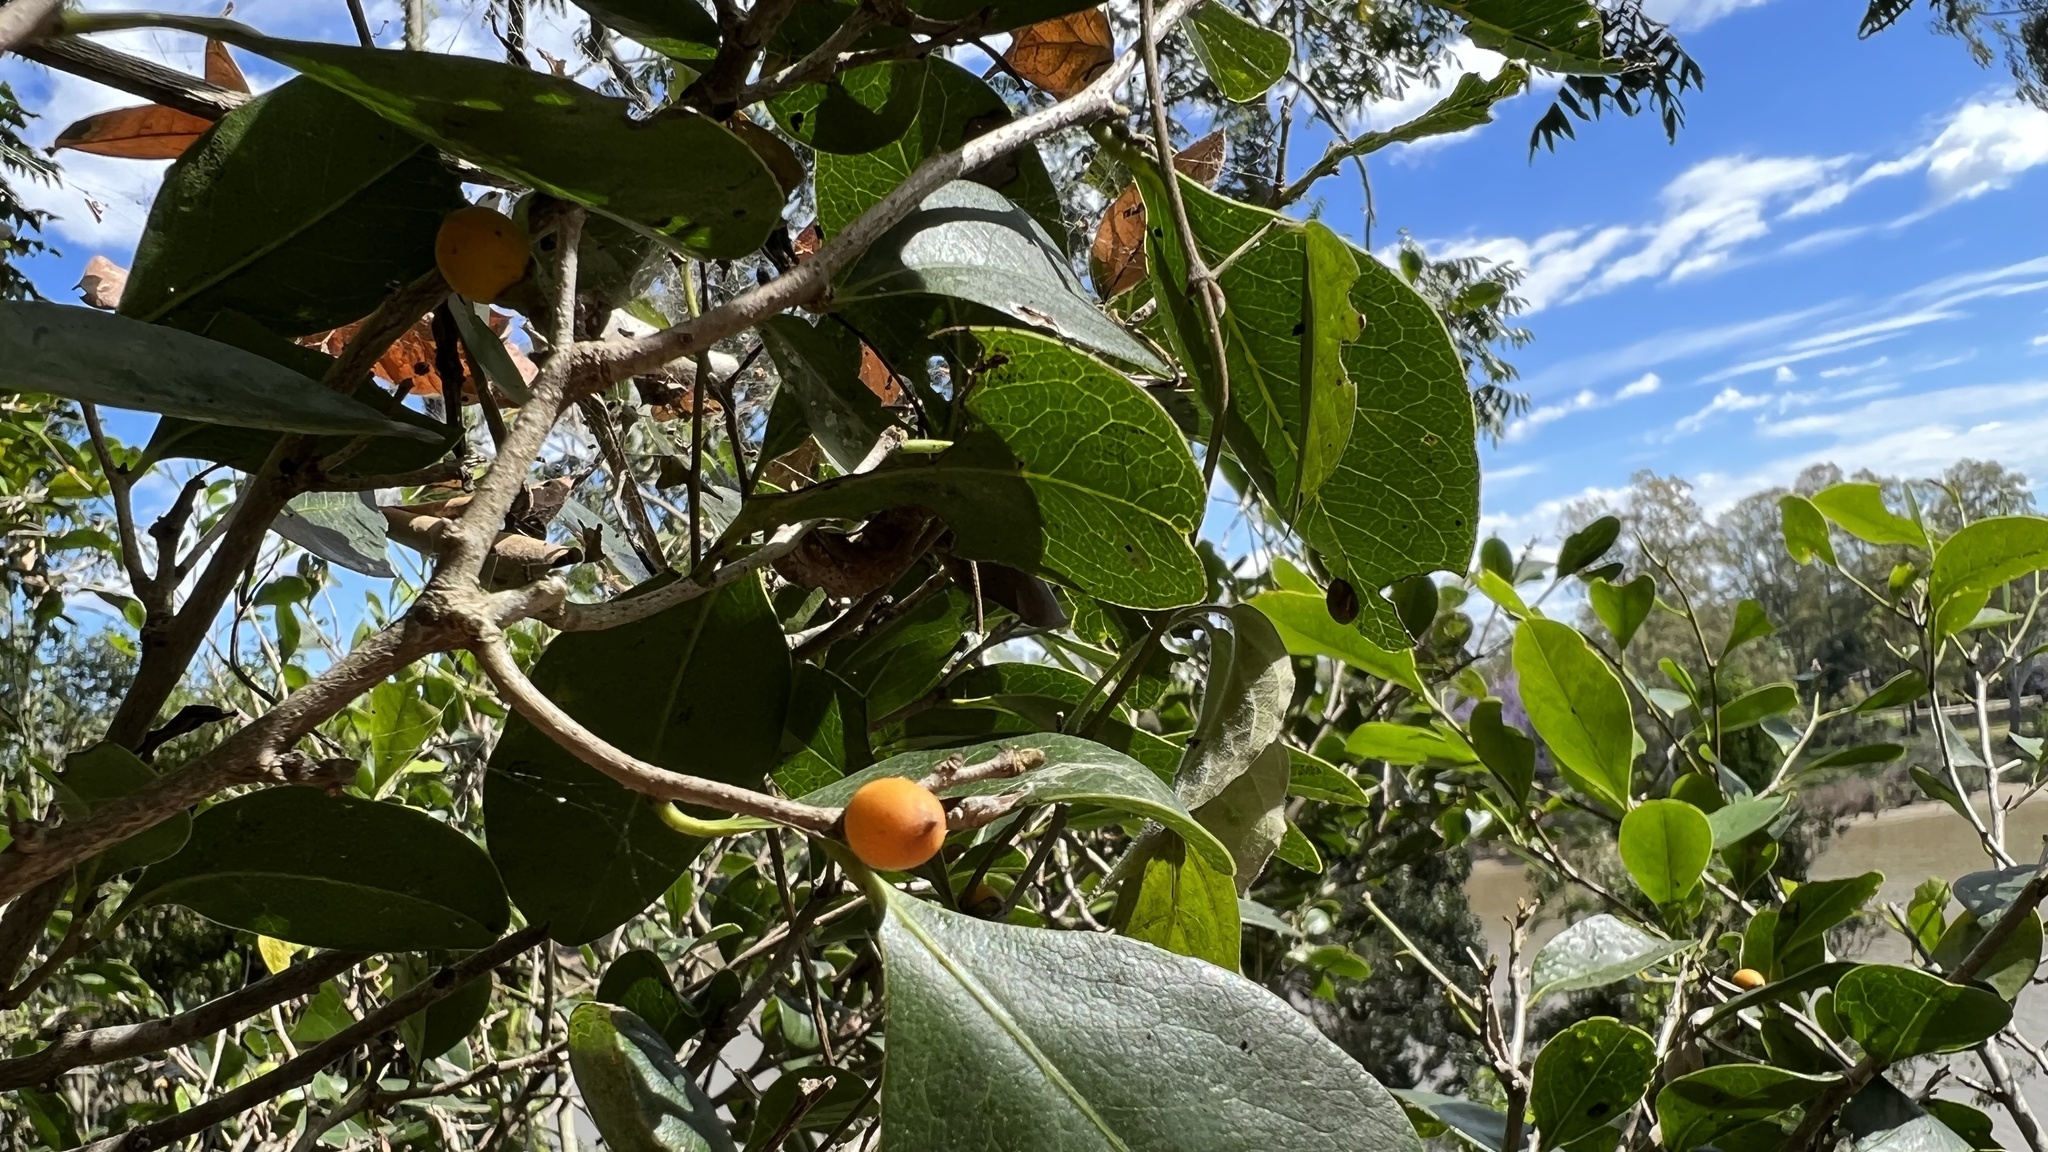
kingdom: Plantae
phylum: Tracheophyta
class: Magnoliopsida
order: Ericales
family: Ebenaceae
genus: Diospyros
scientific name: Diospyros geminata
